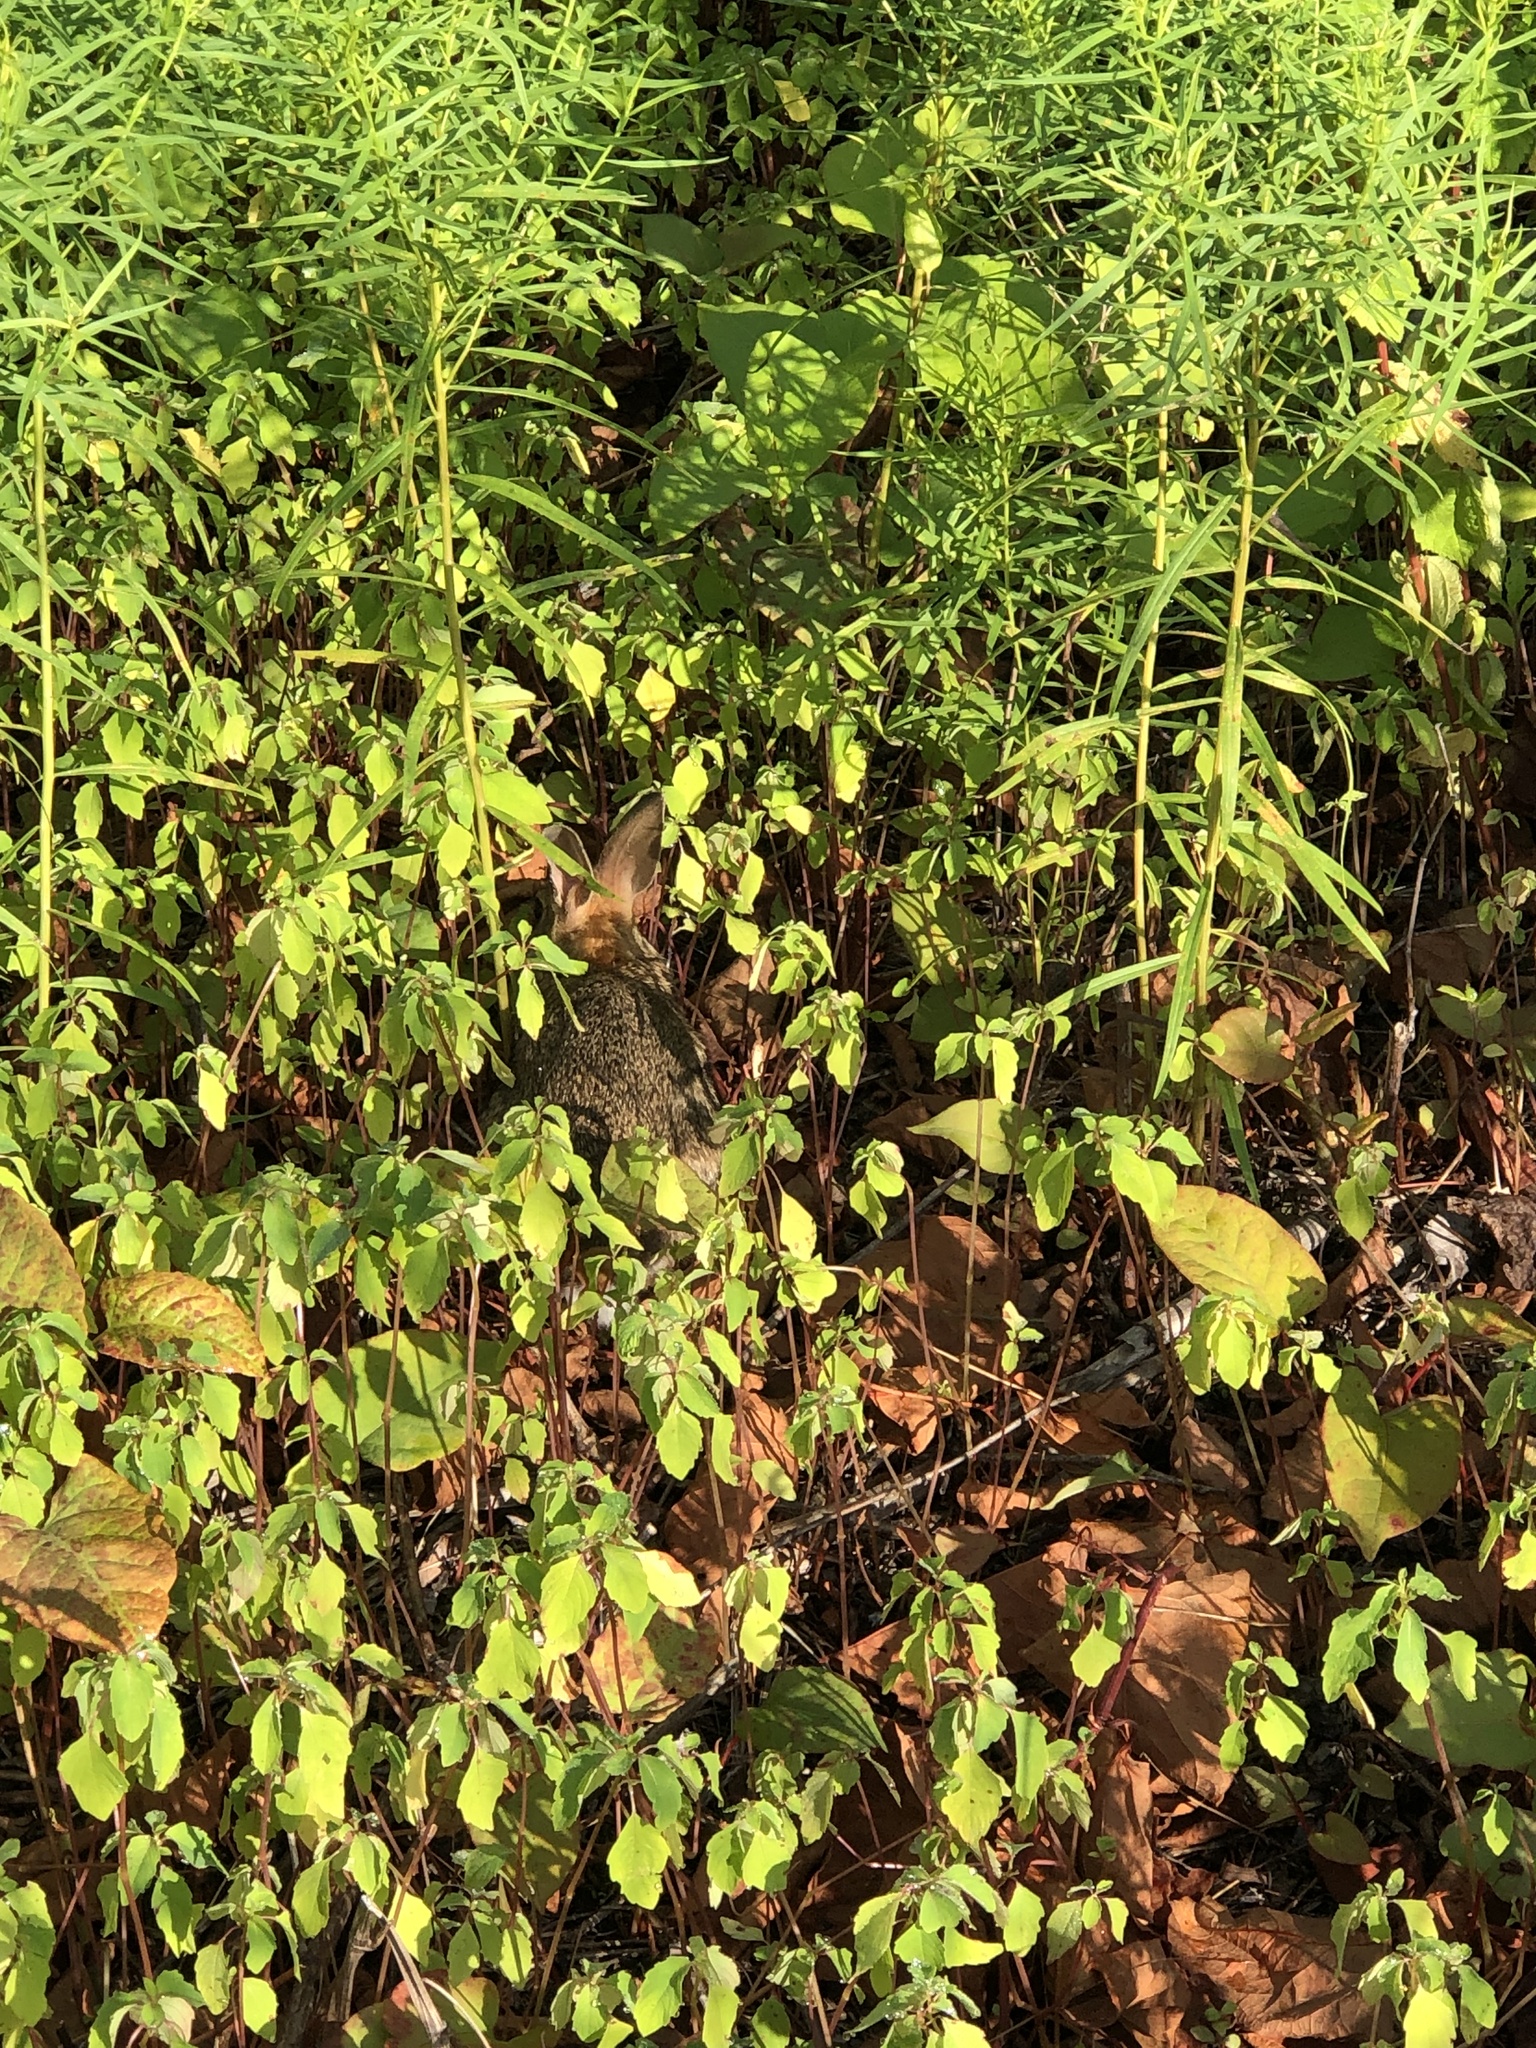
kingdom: Animalia
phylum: Chordata
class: Mammalia
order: Lagomorpha
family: Leporidae
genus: Sylvilagus
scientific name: Sylvilagus floridanus
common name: Eastern cottontail
